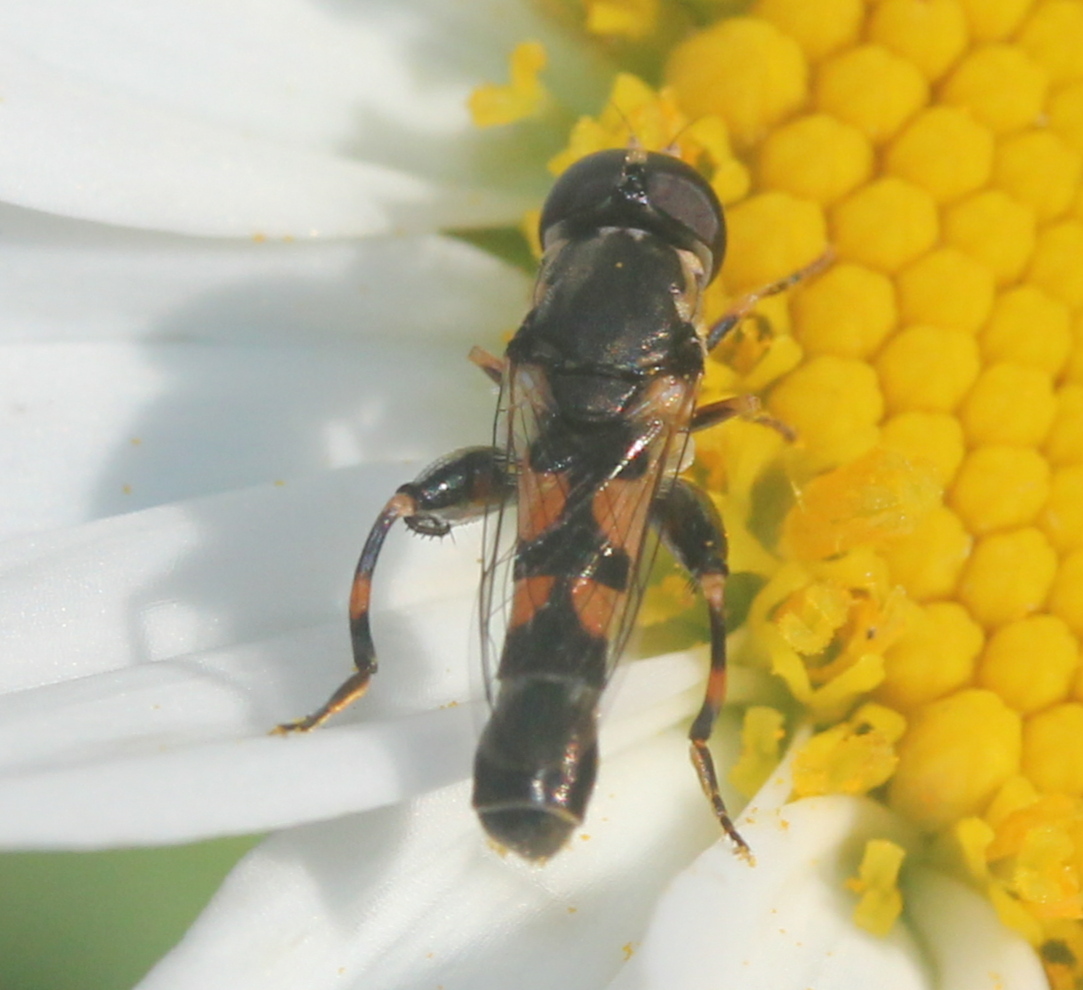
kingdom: Animalia
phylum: Arthropoda
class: Insecta
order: Diptera
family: Syrphidae
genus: Syritta
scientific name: Syritta pipiens
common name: Hover fly
